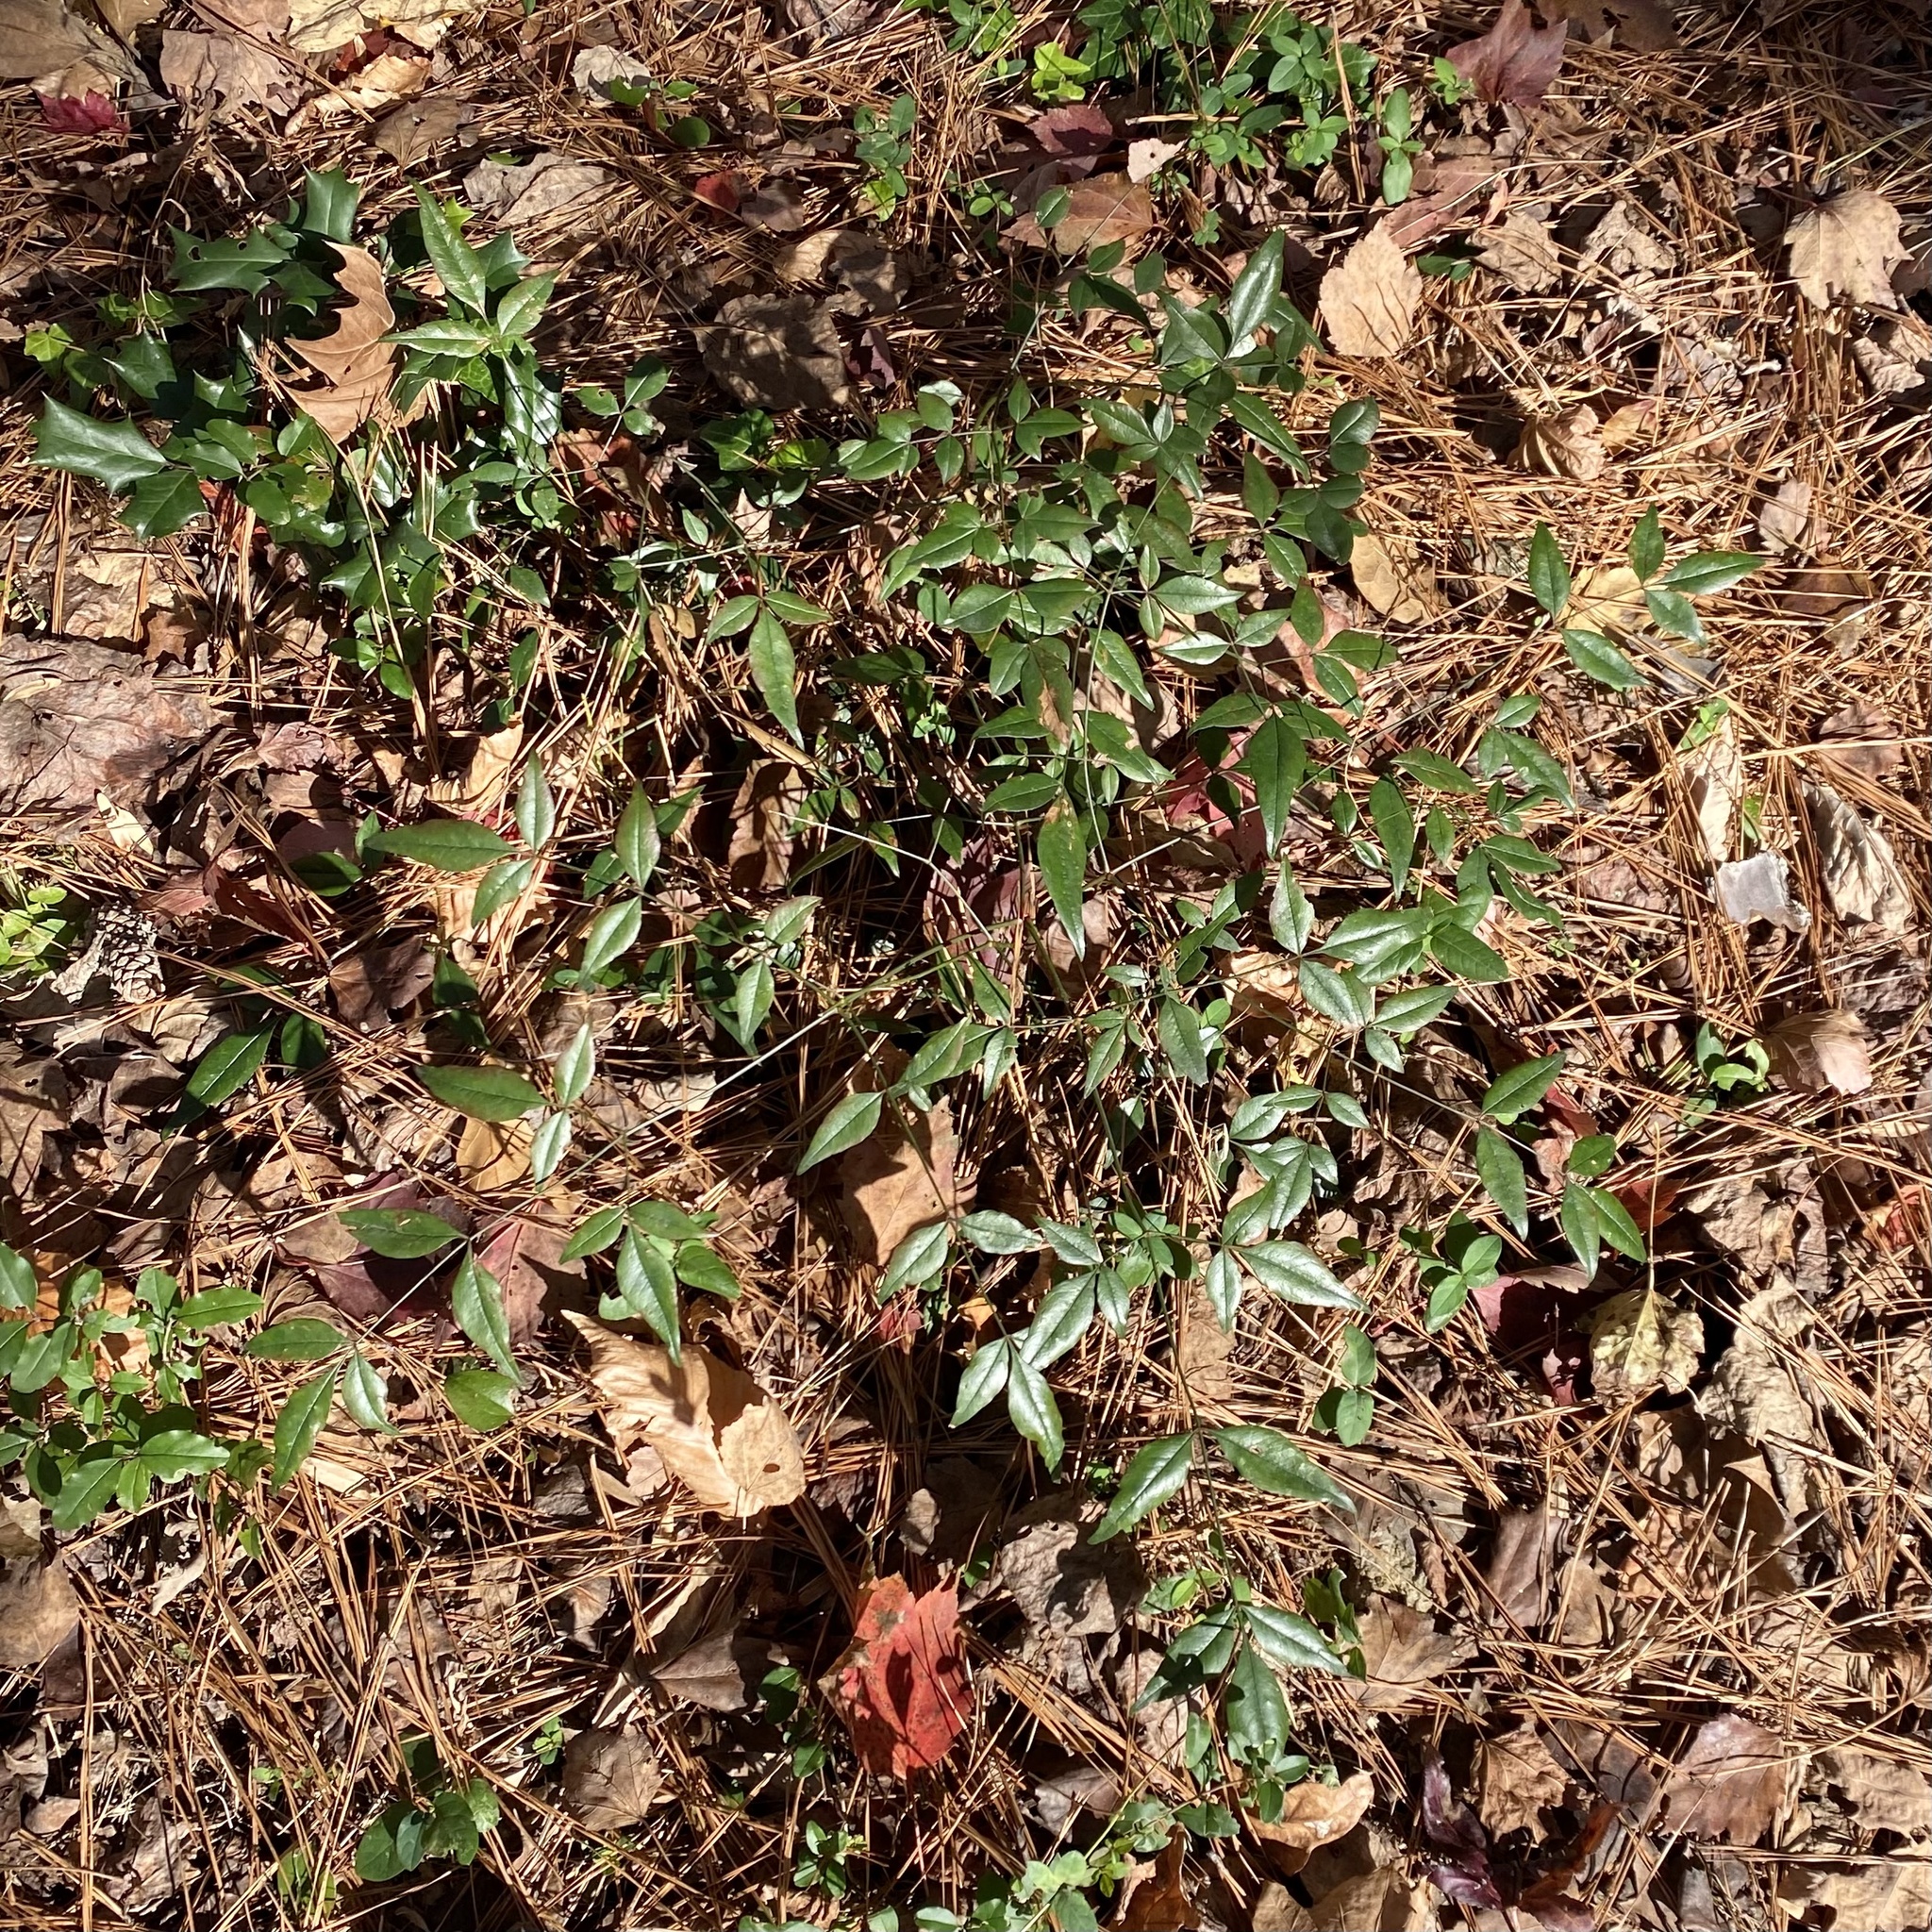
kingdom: Plantae
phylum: Tracheophyta
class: Magnoliopsida
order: Ranunculales
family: Berberidaceae
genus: Nandina
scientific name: Nandina domestica
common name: Sacred bamboo
